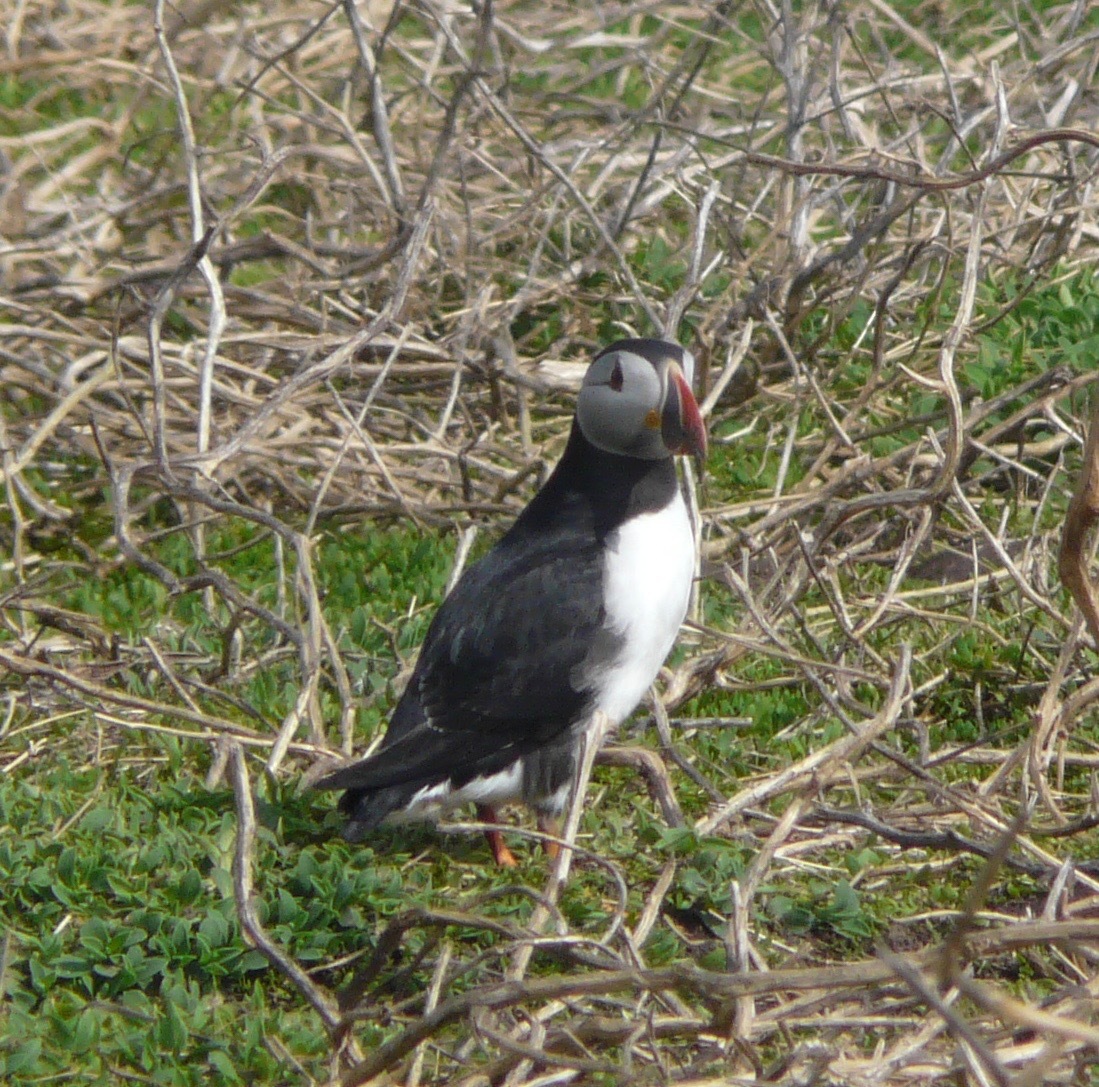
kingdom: Animalia
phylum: Chordata
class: Aves
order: Charadriiformes
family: Alcidae
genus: Fratercula
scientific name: Fratercula arctica
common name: Atlantic puffin
